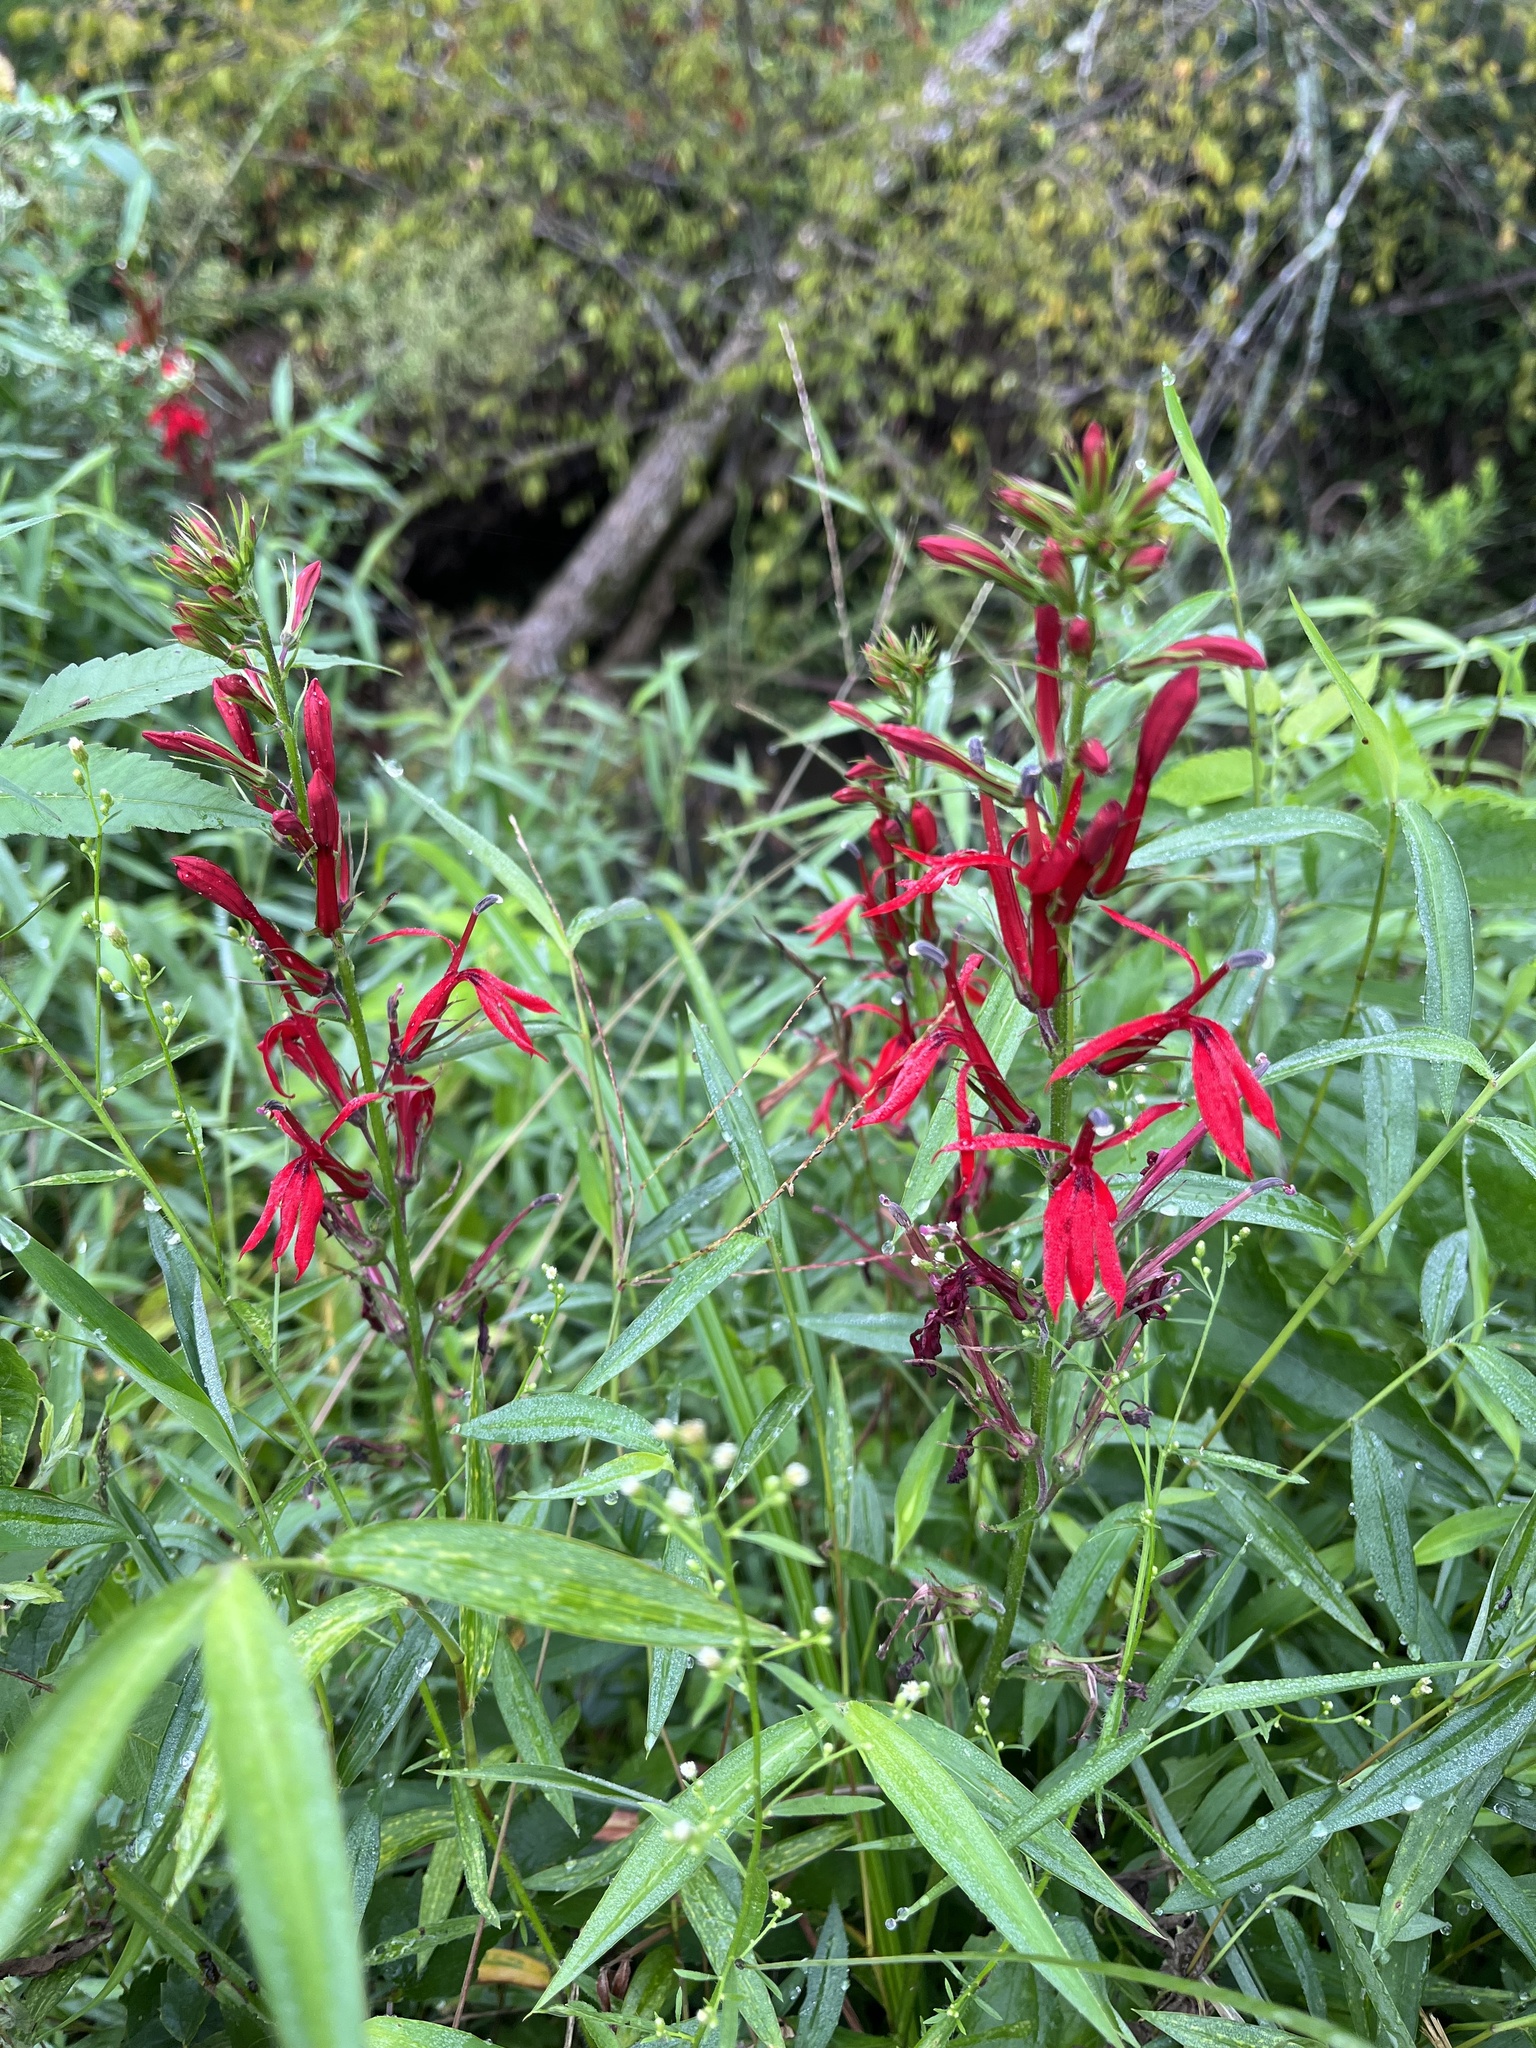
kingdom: Plantae
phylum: Tracheophyta
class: Magnoliopsida
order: Asterales
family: Campanulaceae
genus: Lobelia
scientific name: Lobelia cardinalis
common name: Cardinal flower
